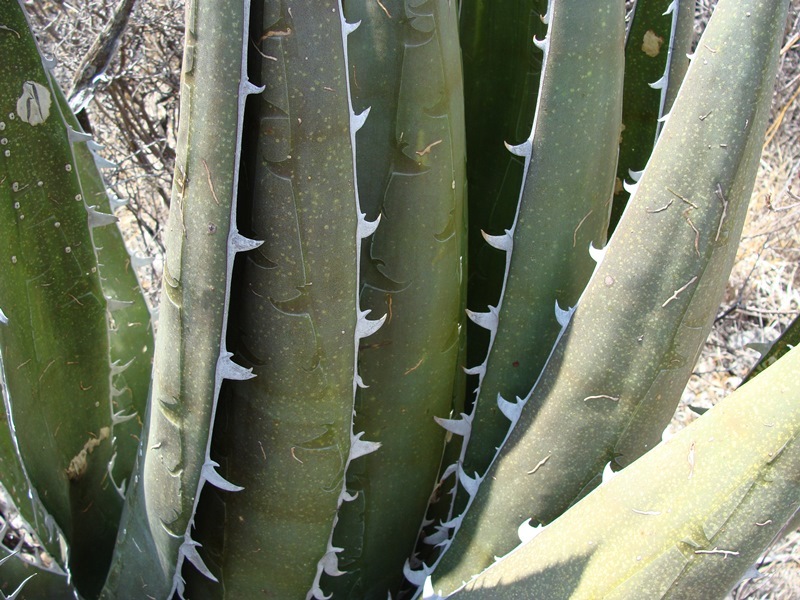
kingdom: Plantae
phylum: Tracheophyta
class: Liliopsida
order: Asparagales
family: Asparagaceae
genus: Agave
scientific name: Agave kerchovei
